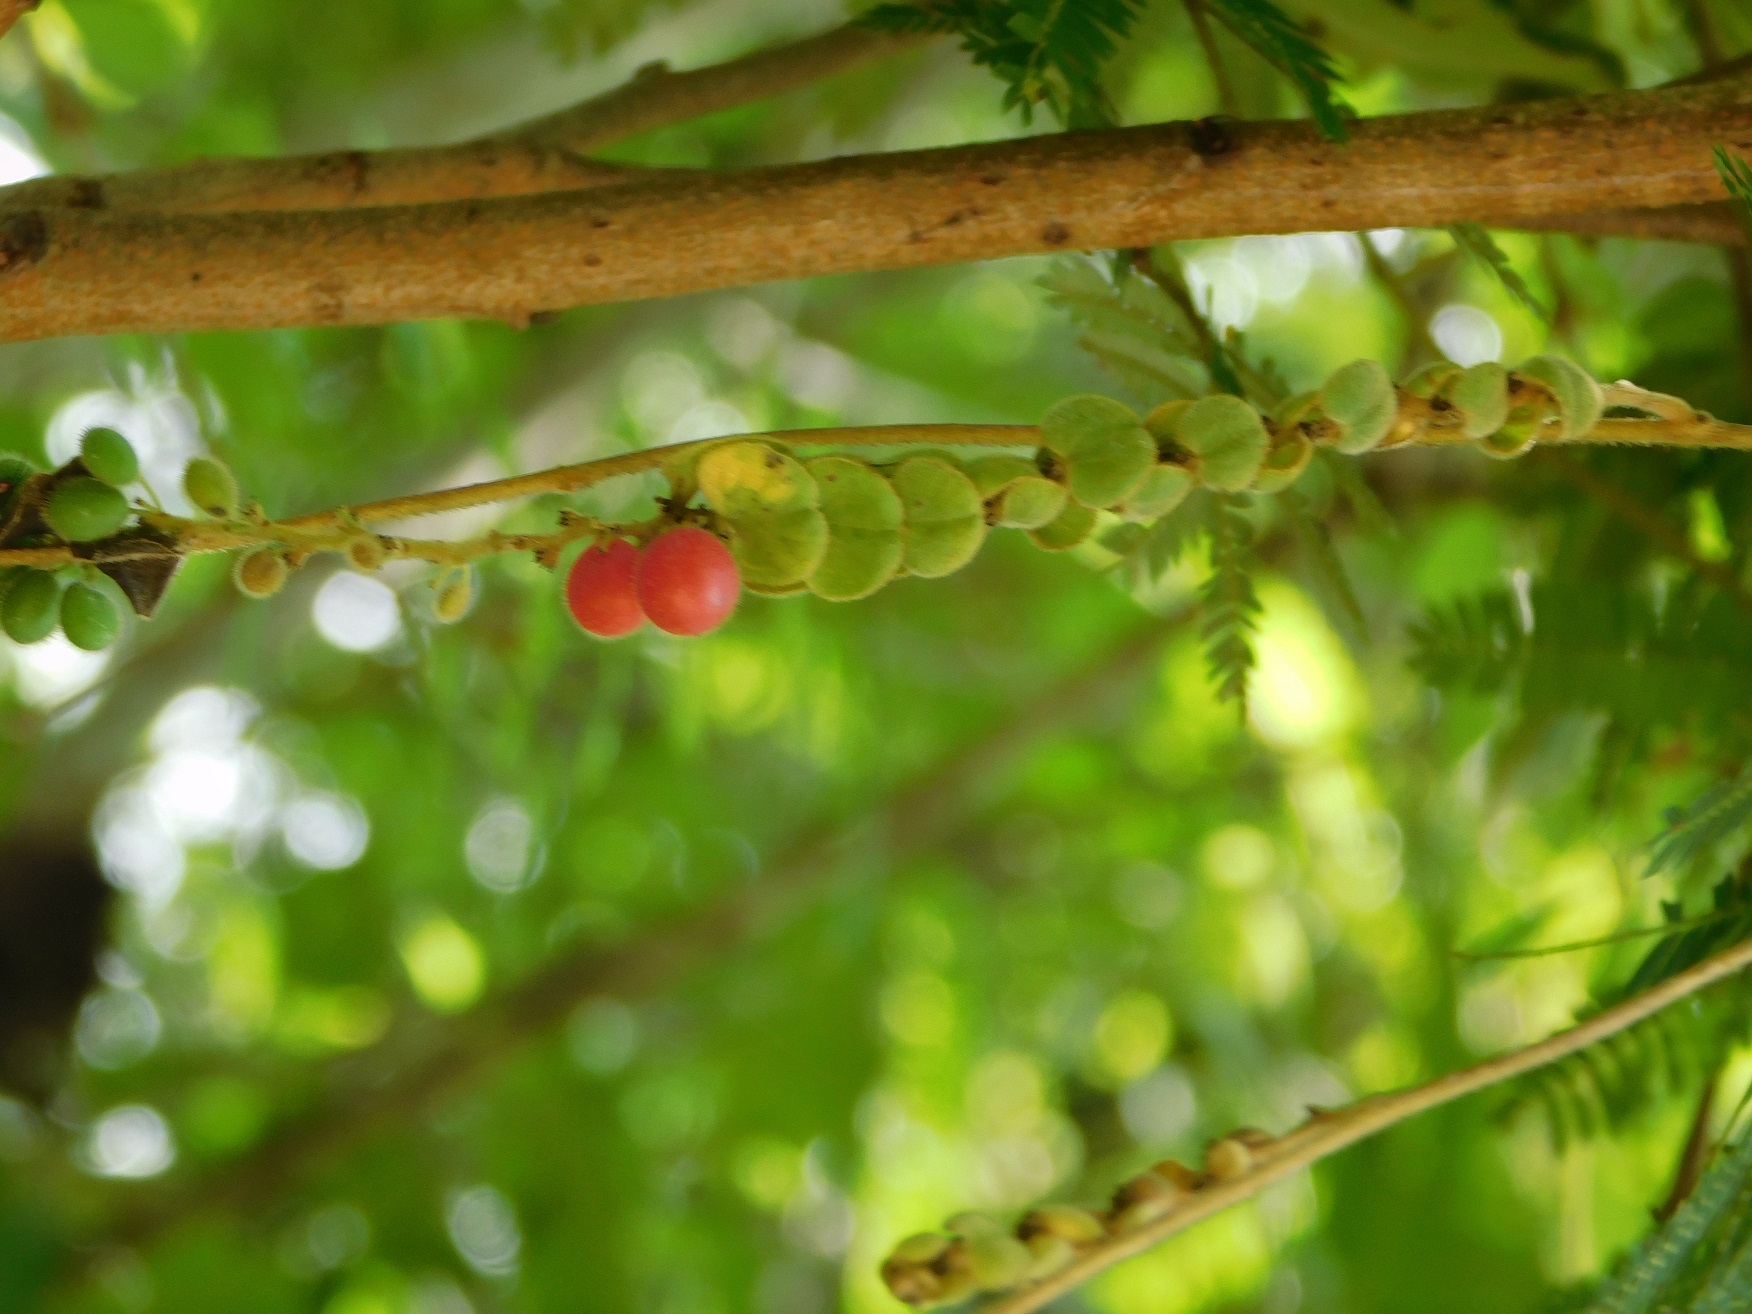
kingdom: Plantae
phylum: Tracheophyta
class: Magnoliopsida
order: Ranunculales
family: Menispermaceae
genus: Cissampelos
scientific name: Cissampelos pareira
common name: Velvetleaf
